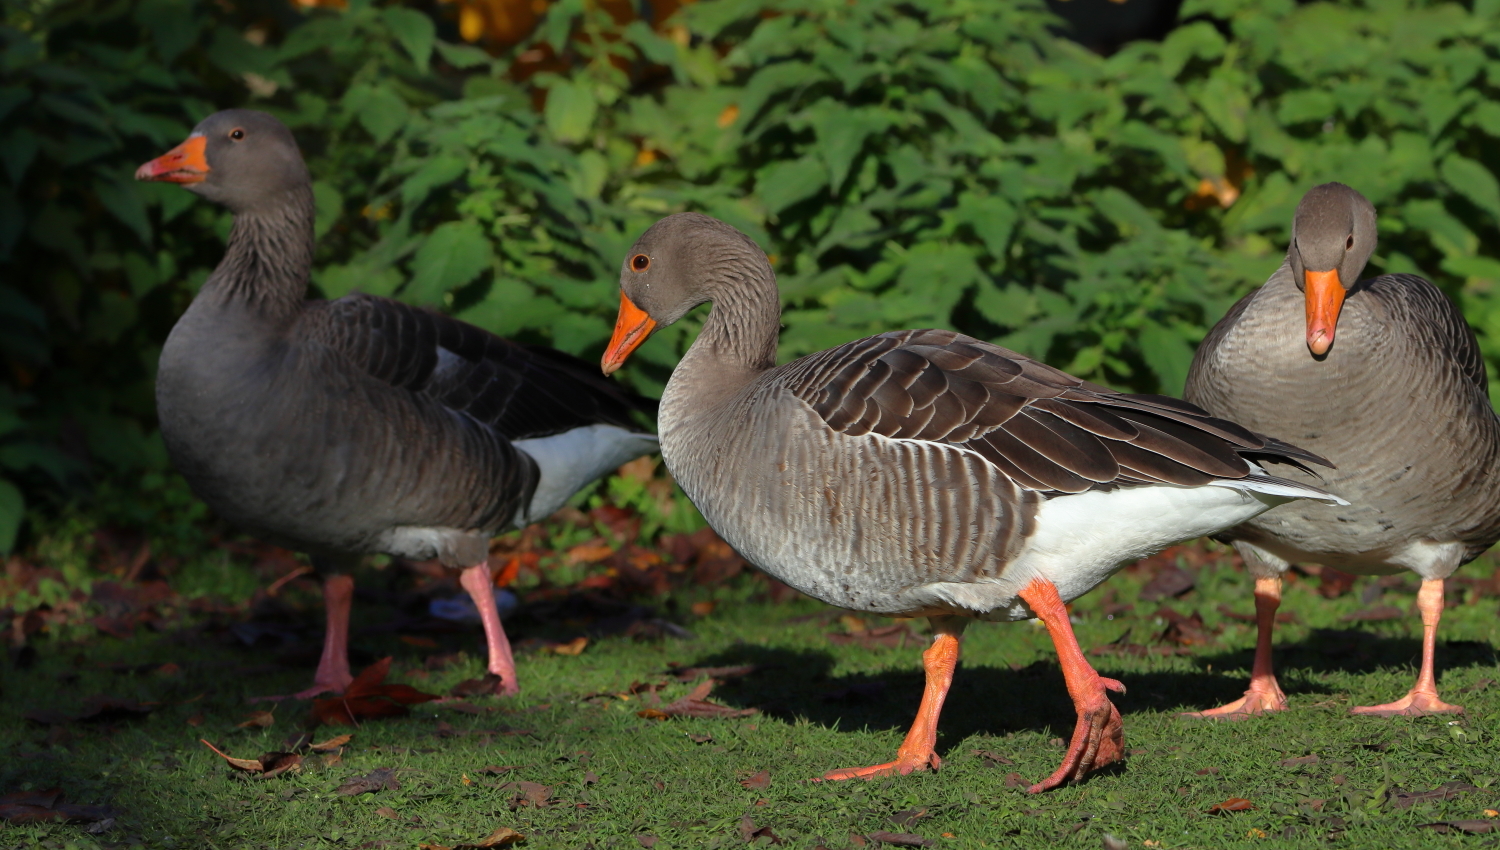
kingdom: Animalia
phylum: Chordata
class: Aves
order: Anseriformes
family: Anatidae
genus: Anser
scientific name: Anser anser
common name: Greylag goose
